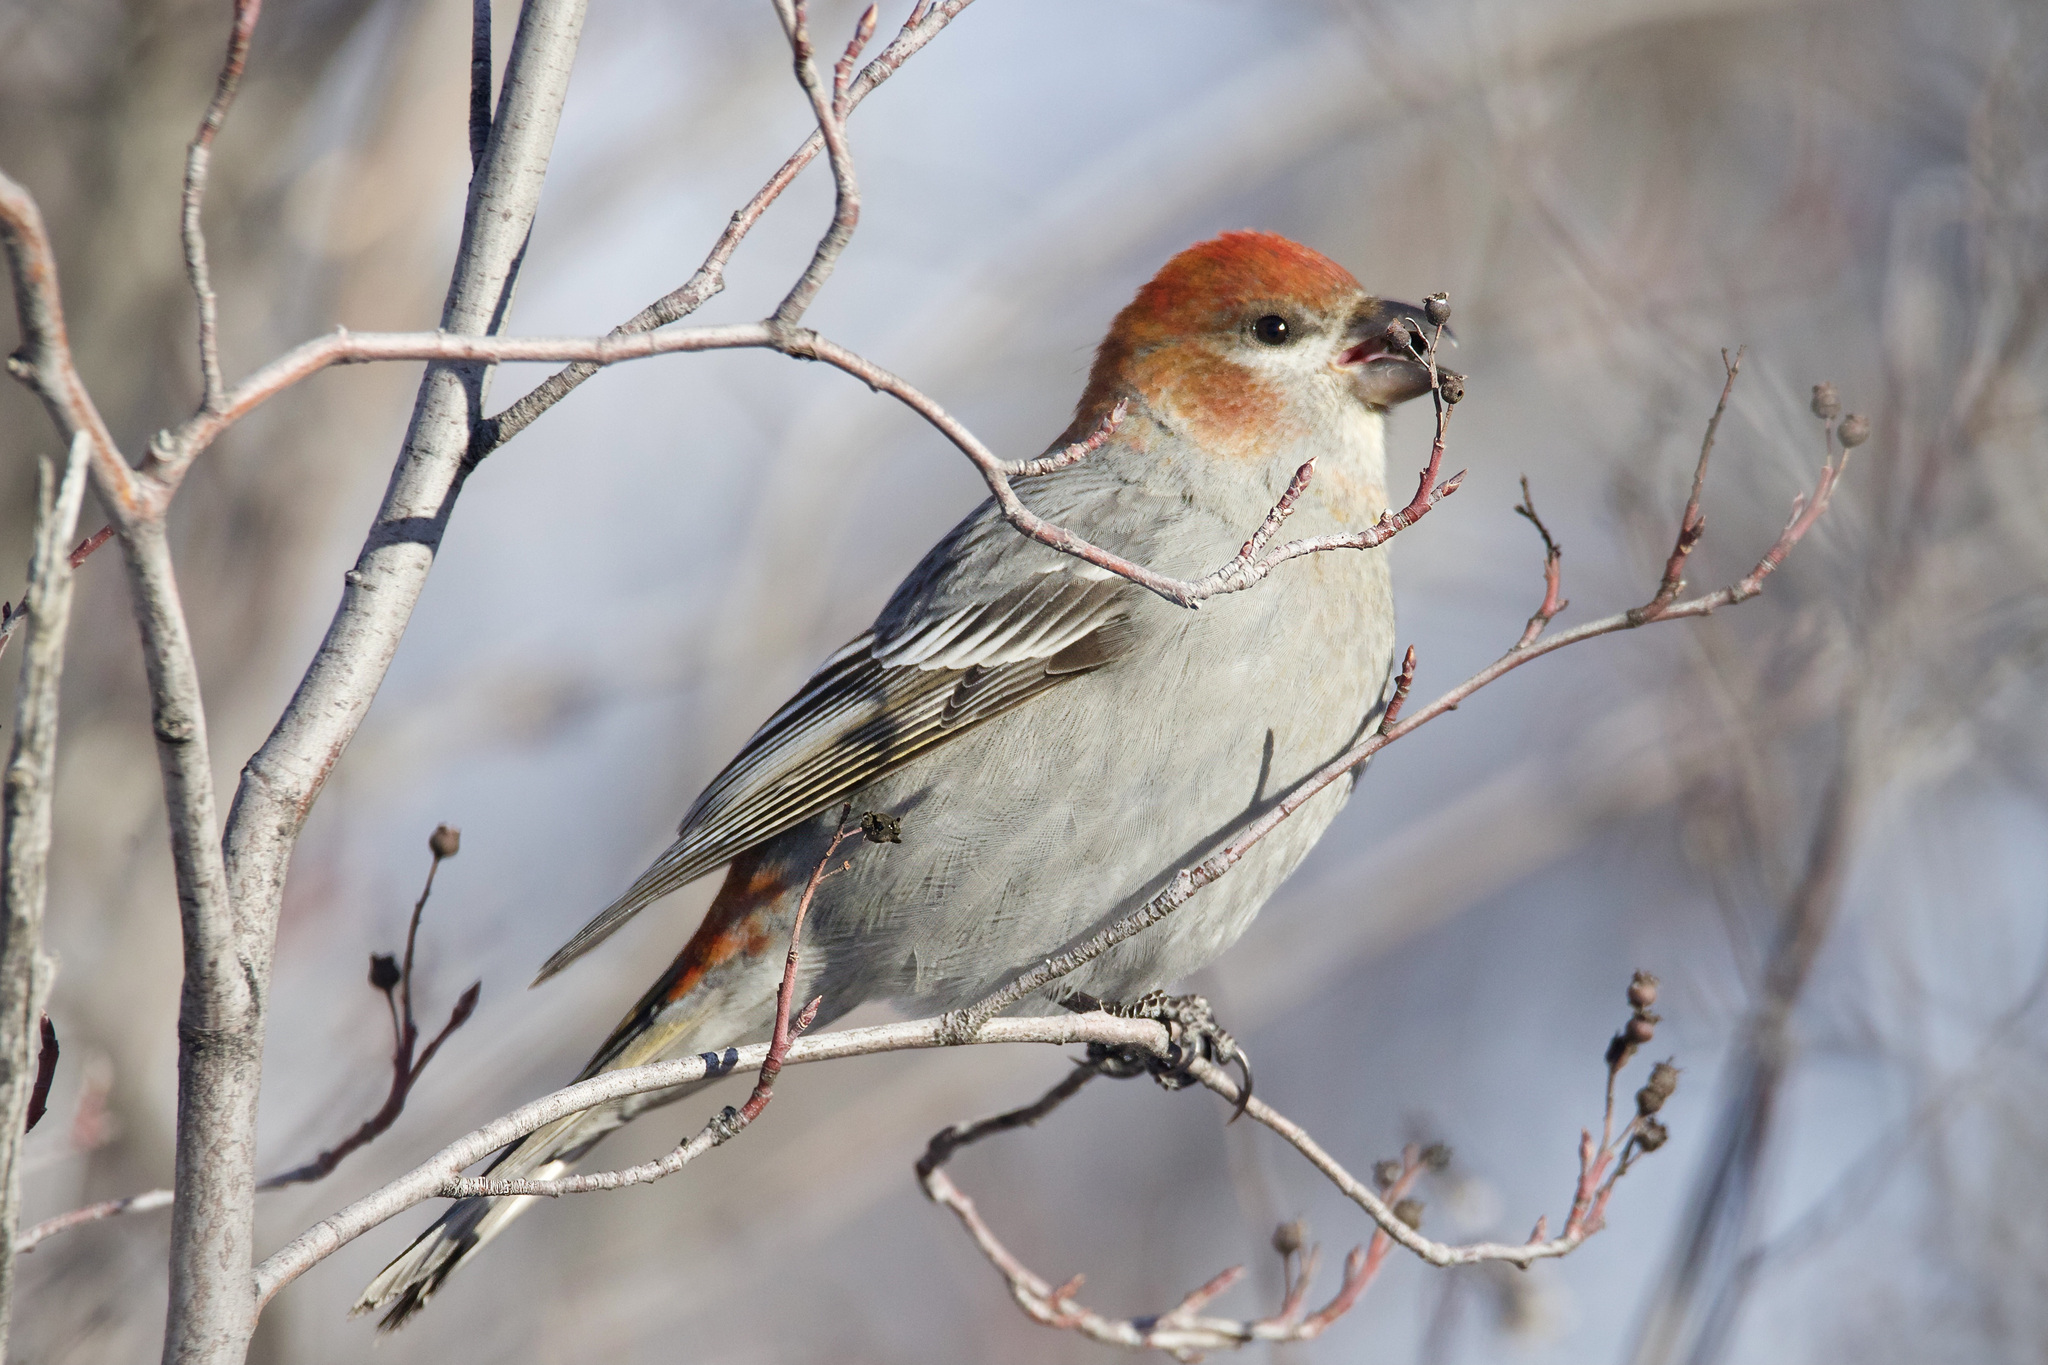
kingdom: Animalia
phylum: Chordata
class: Aves
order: Passeriformes
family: Fringillidae
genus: Pinicola
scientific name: Pinicola enucleator
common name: Pine grosbeak
